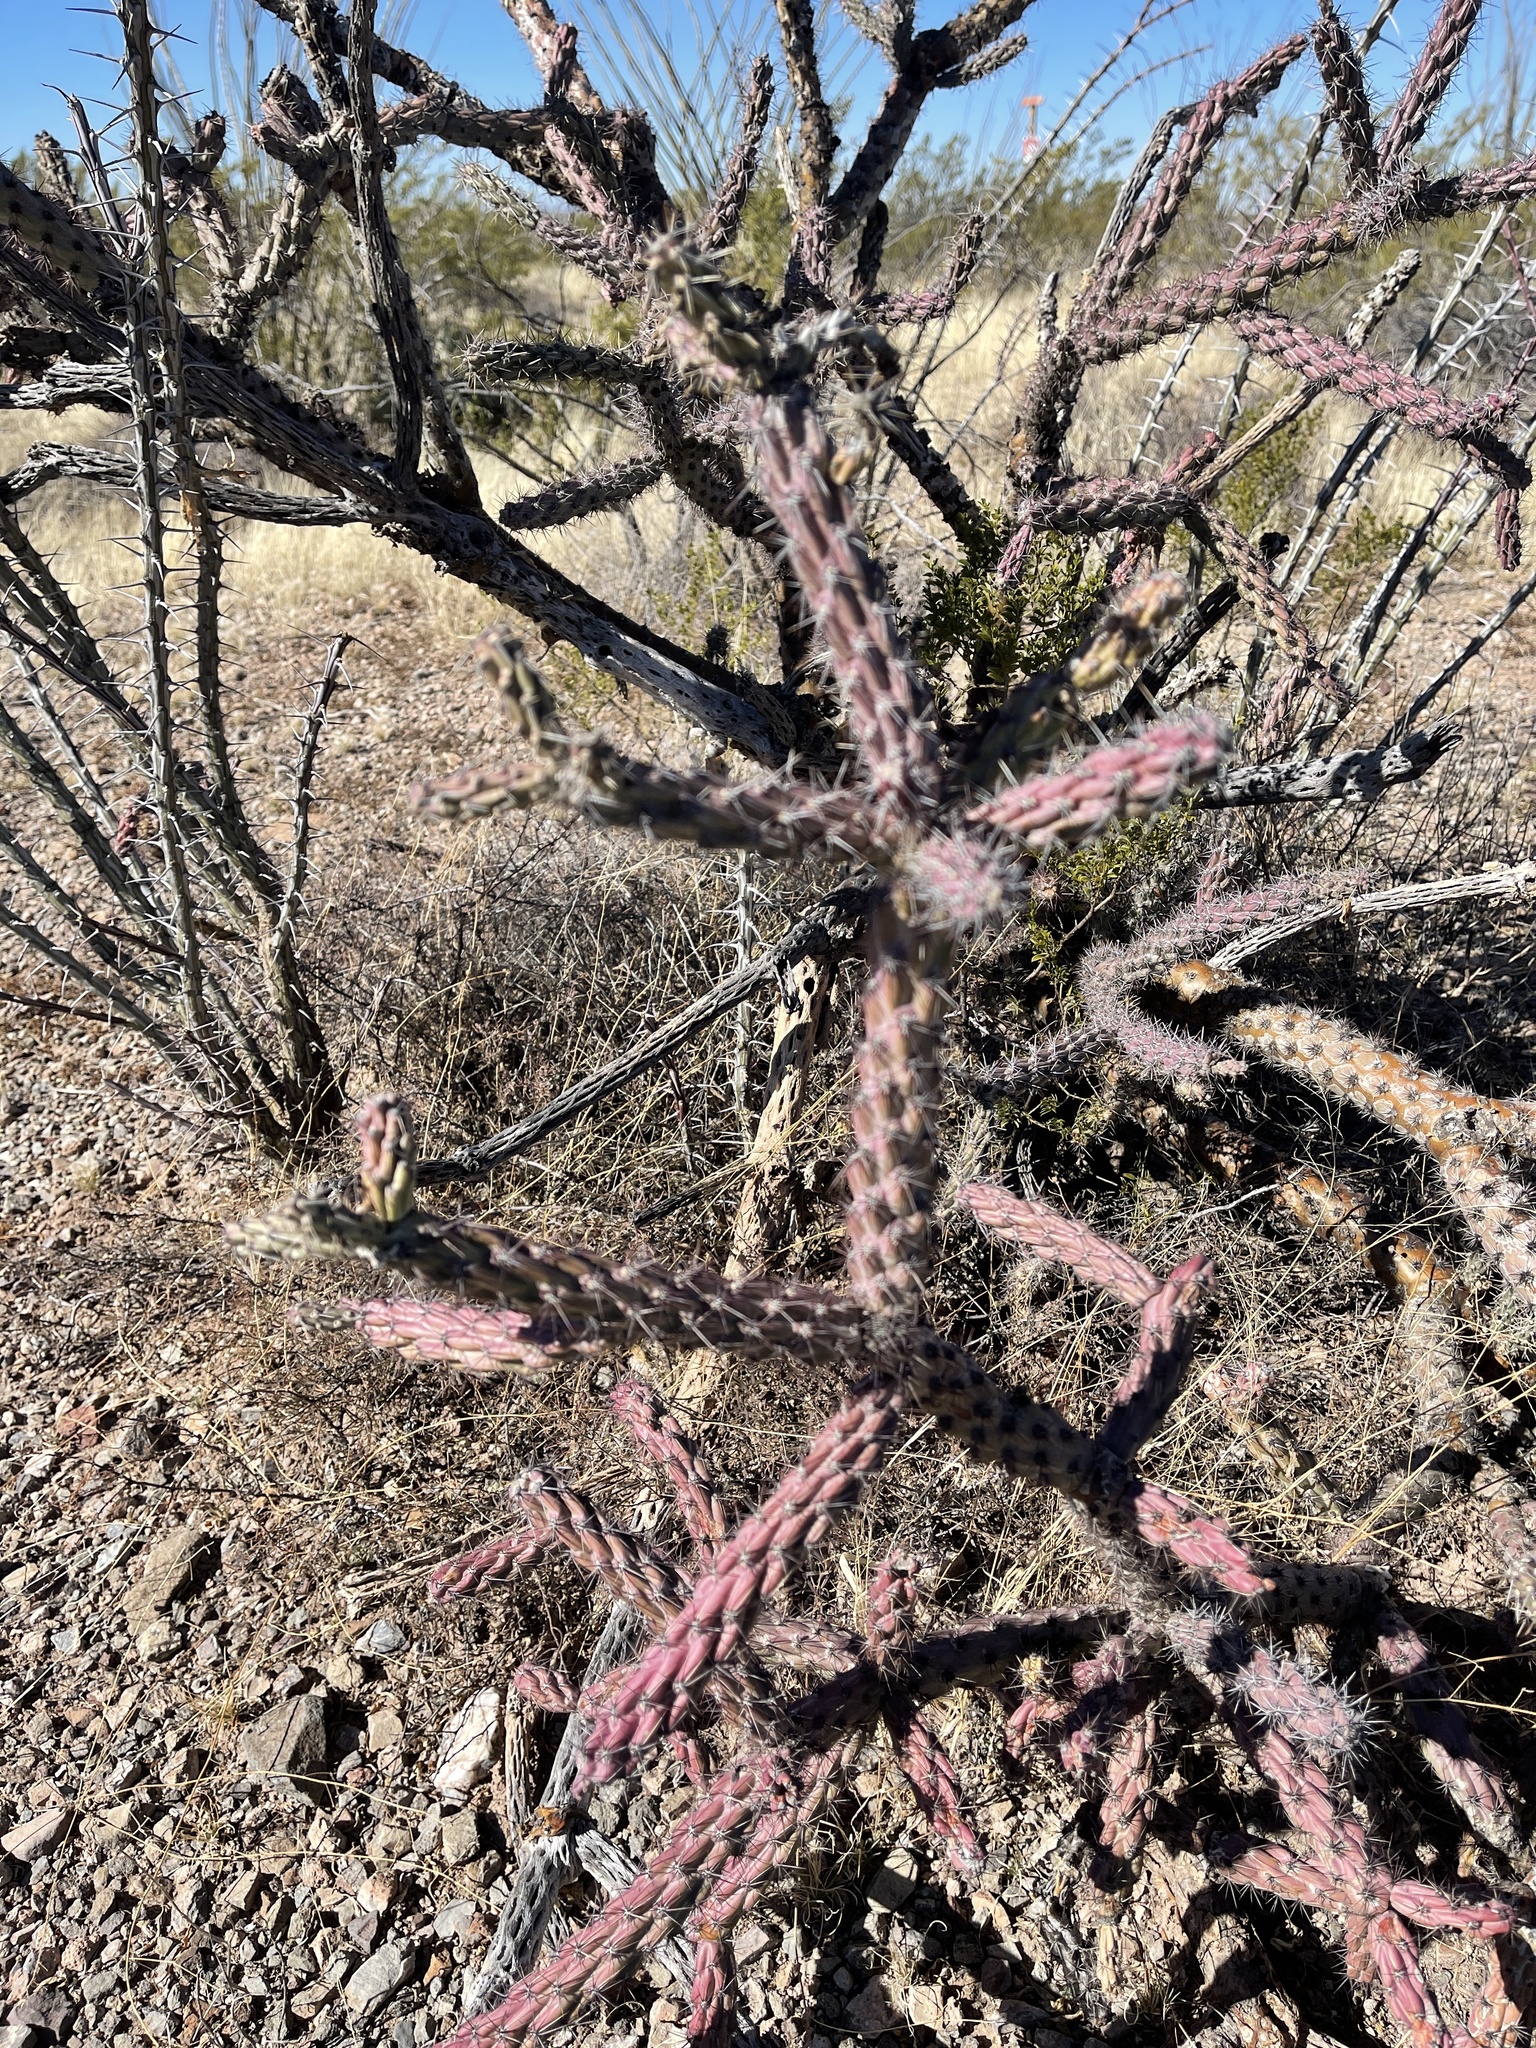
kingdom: Plantae
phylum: Tracheophyta
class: Magnoliopsida
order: Caryophyllales
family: Cactaceae
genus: Cylindropuntia
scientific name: Cylindropuntia thurberi
